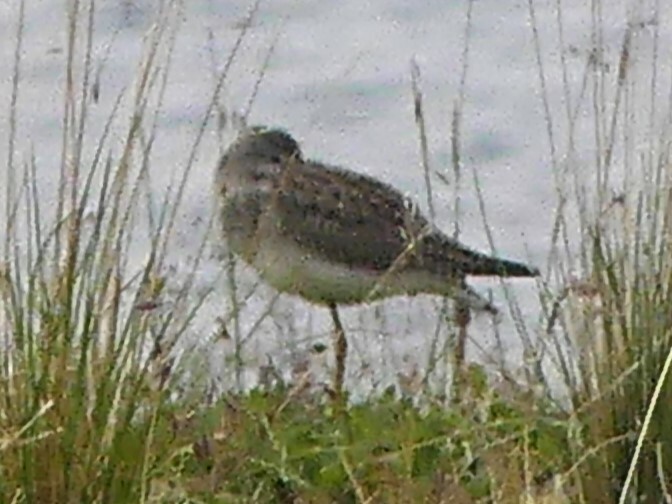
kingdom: Animalia
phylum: Chordata
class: Aves
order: Charadriiformes
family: Scolopacidae
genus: Tringa
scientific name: Tringa flavipes
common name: Lesser yellowlegs
